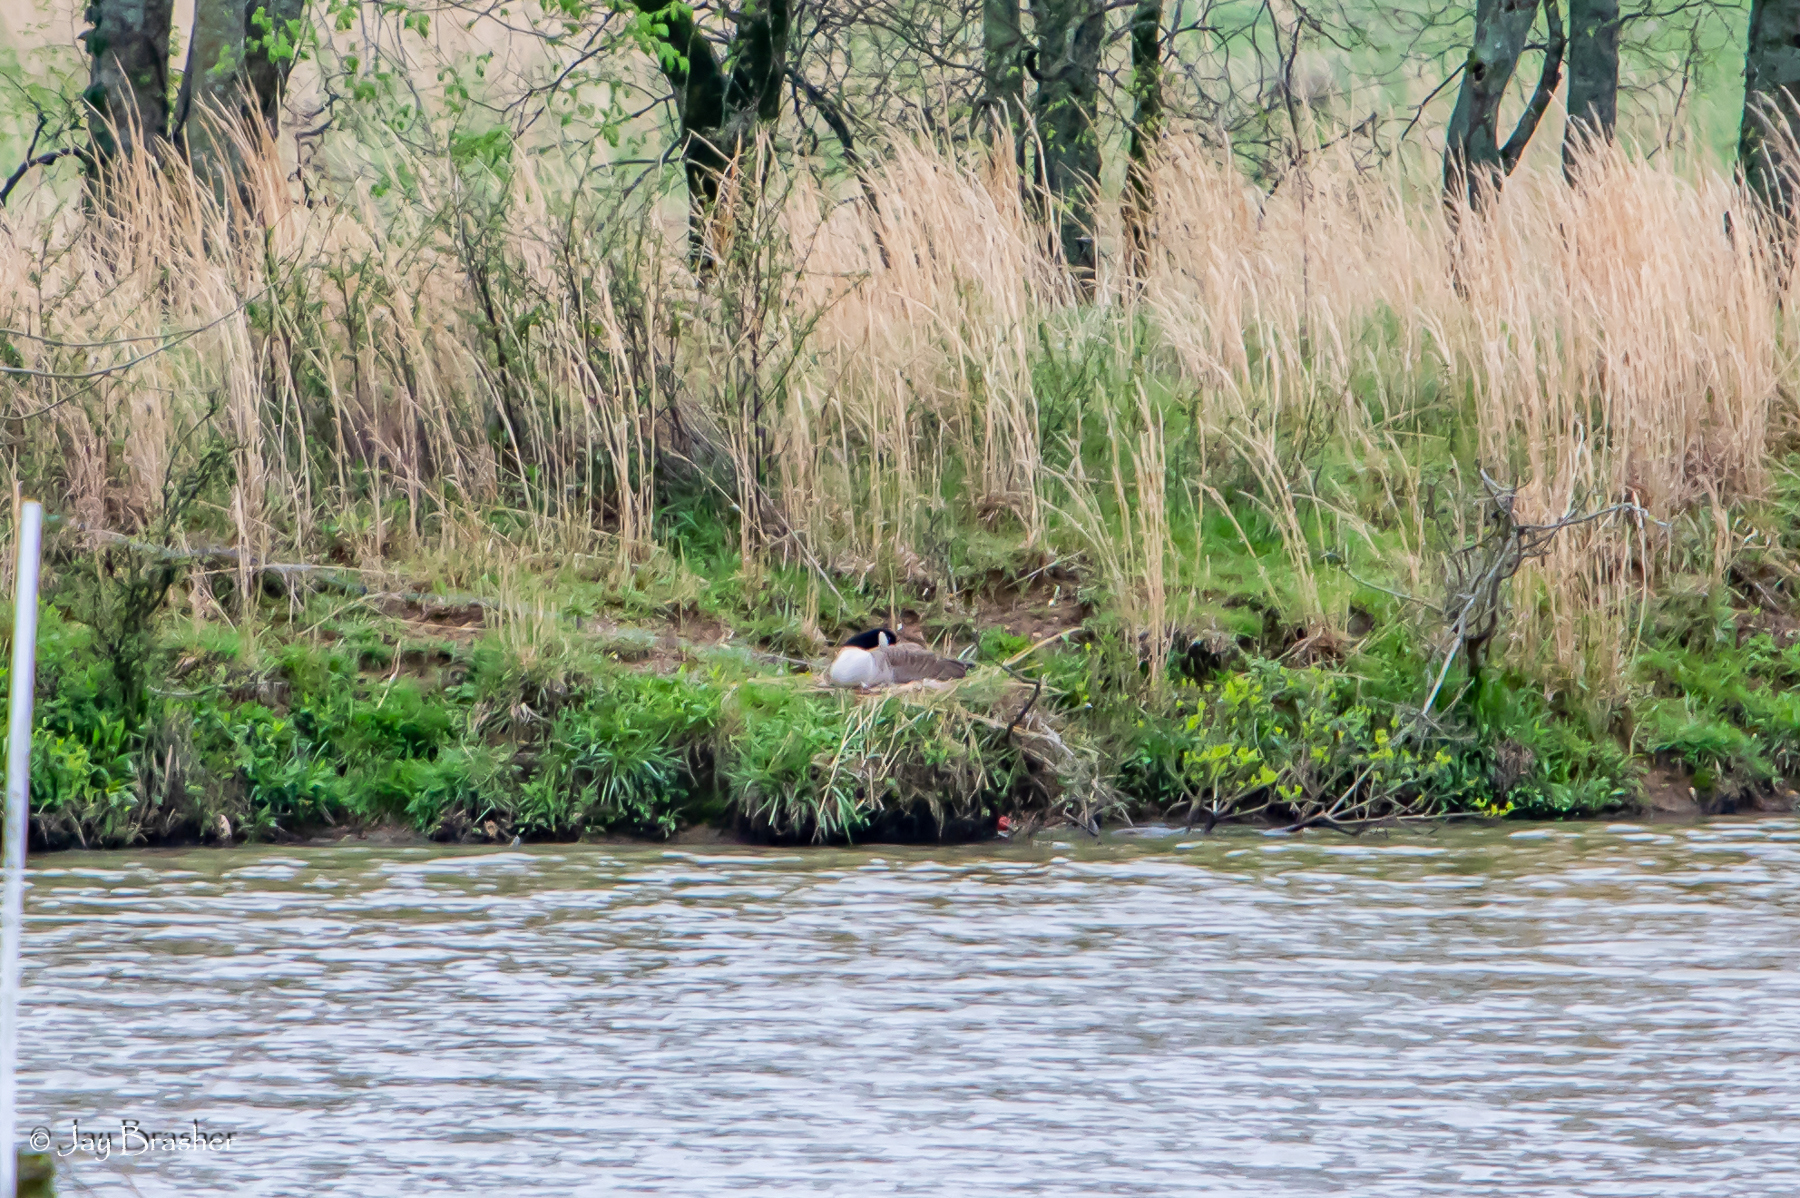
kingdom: Animalia
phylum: Chordata
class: Aves
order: Anseriformes
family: Anatidae
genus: Branta
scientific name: Branta canadensis
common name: Canada goose
